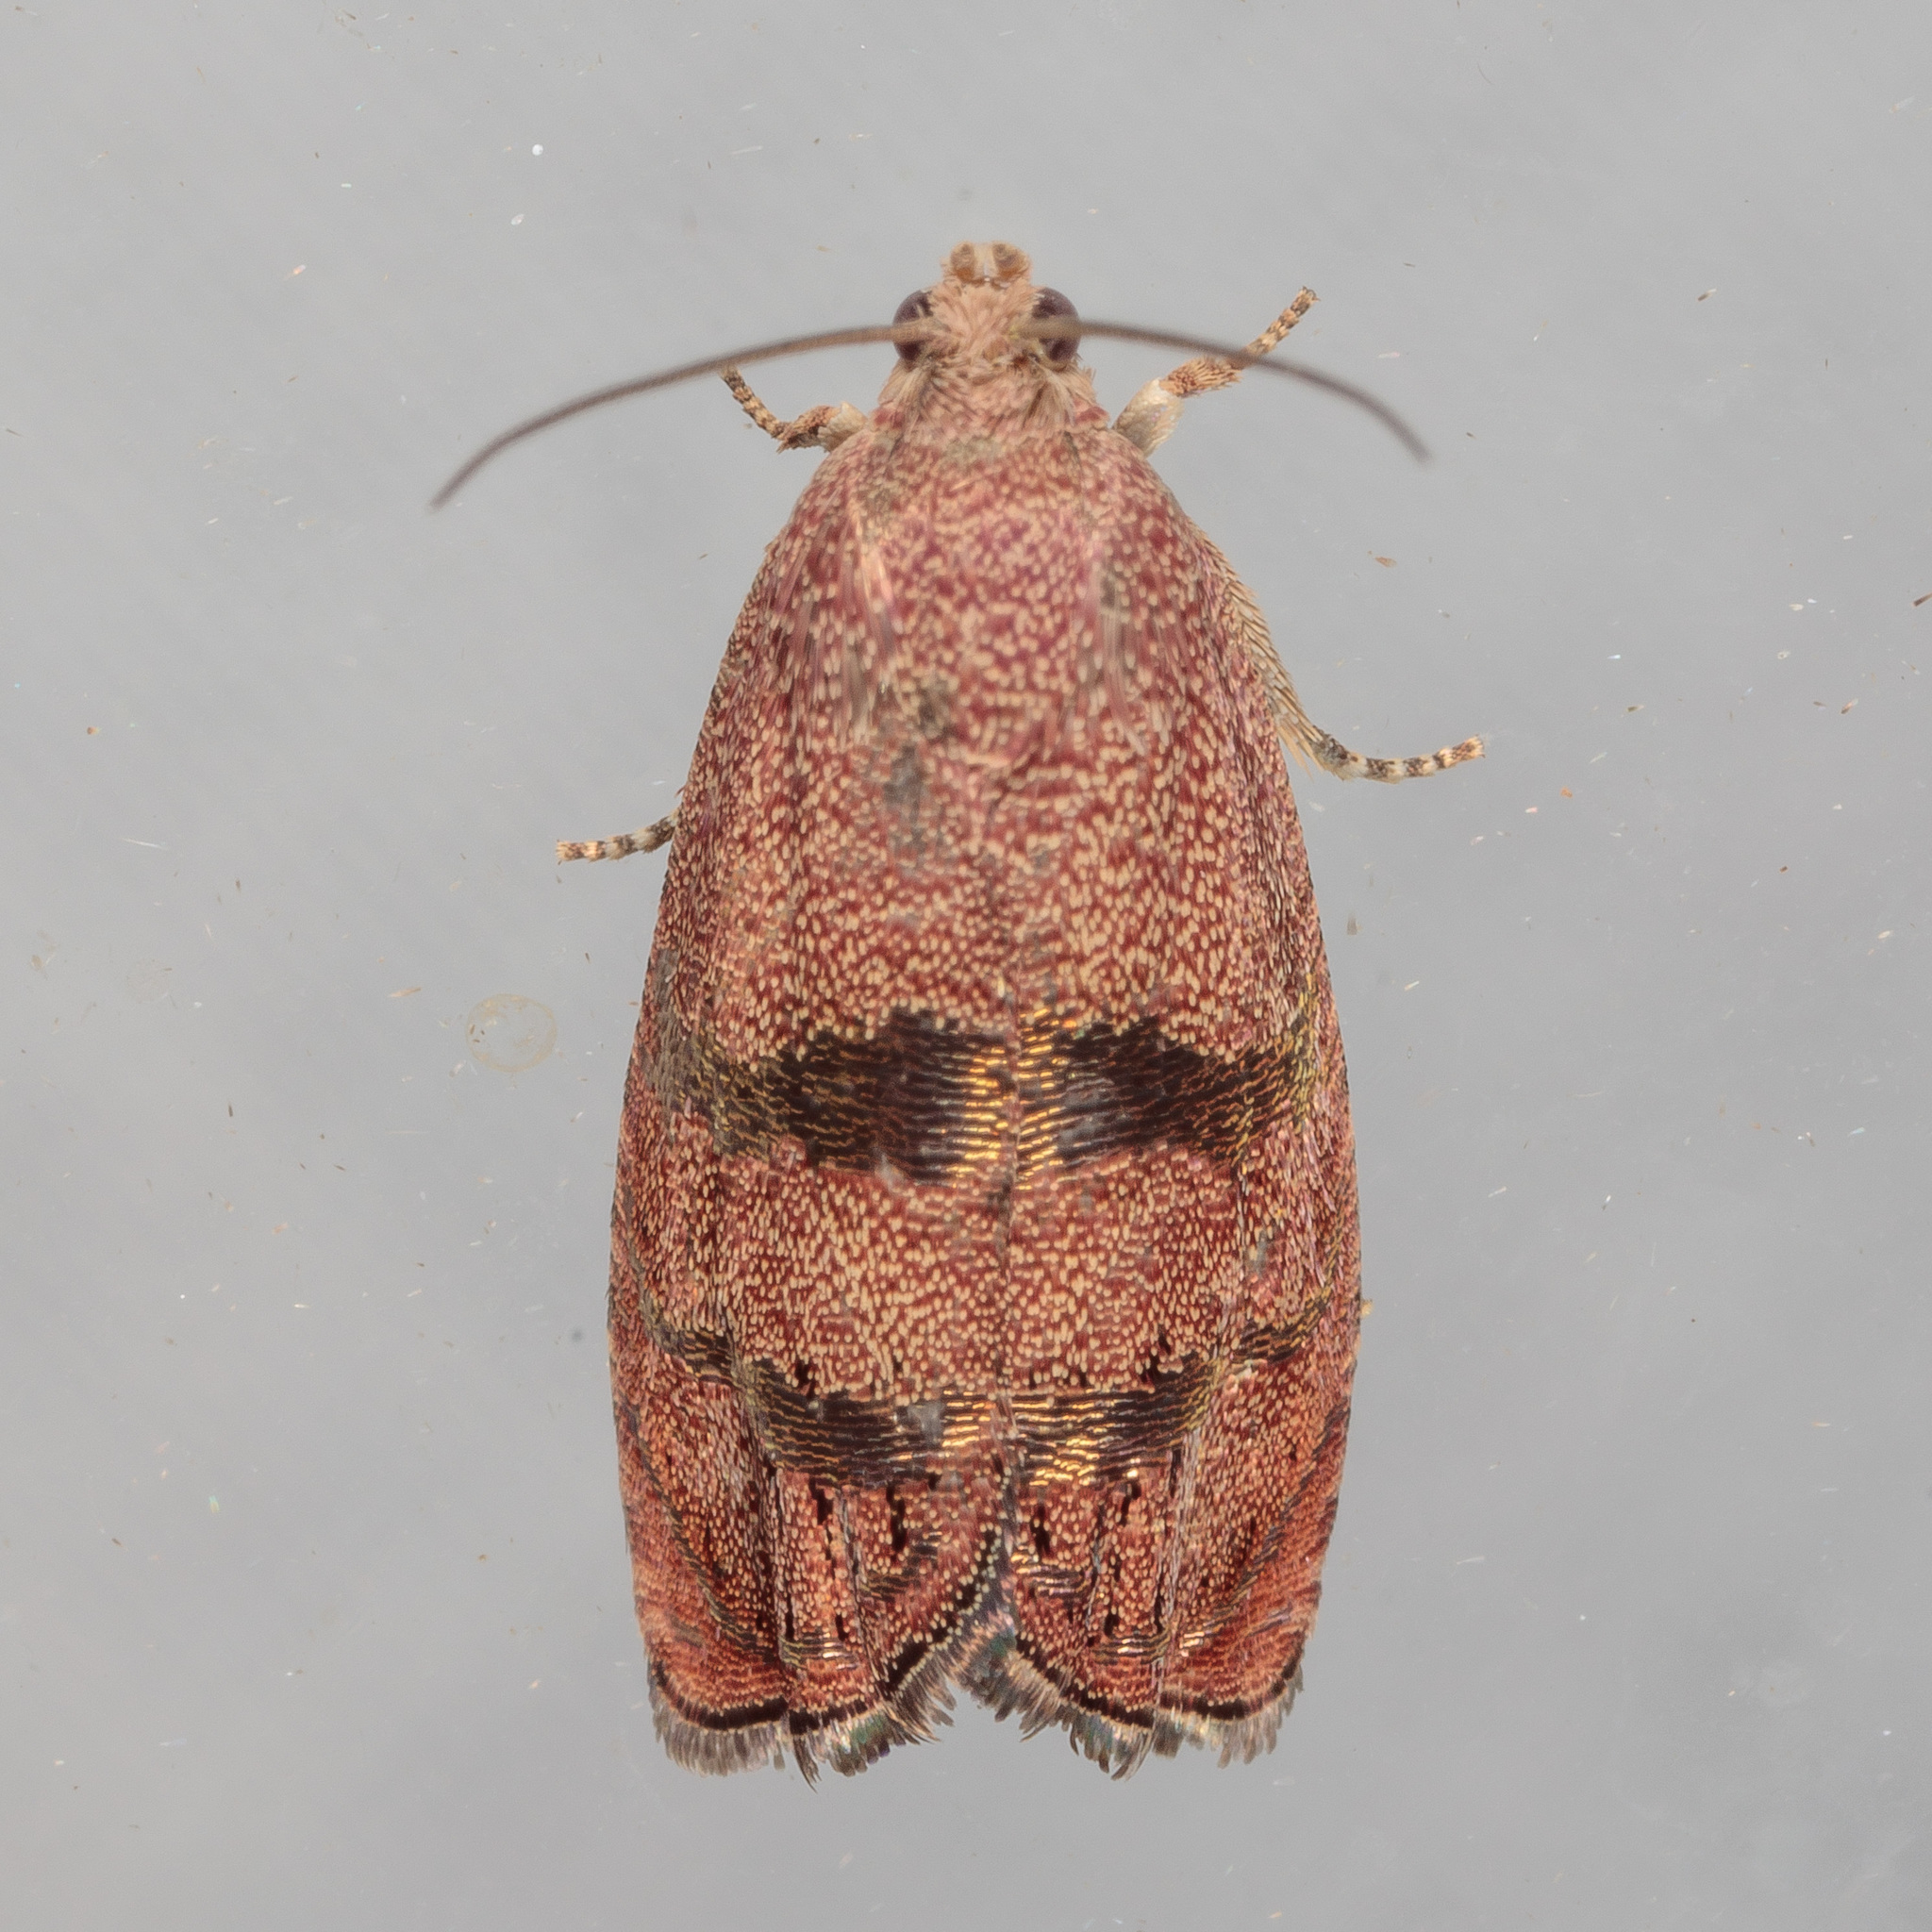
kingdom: Animalia
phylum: Arthropoda
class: Insecta
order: Lepidoptera
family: Tortricidae
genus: Cydia
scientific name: Cydia latiferreana
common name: Filbertworm moth
